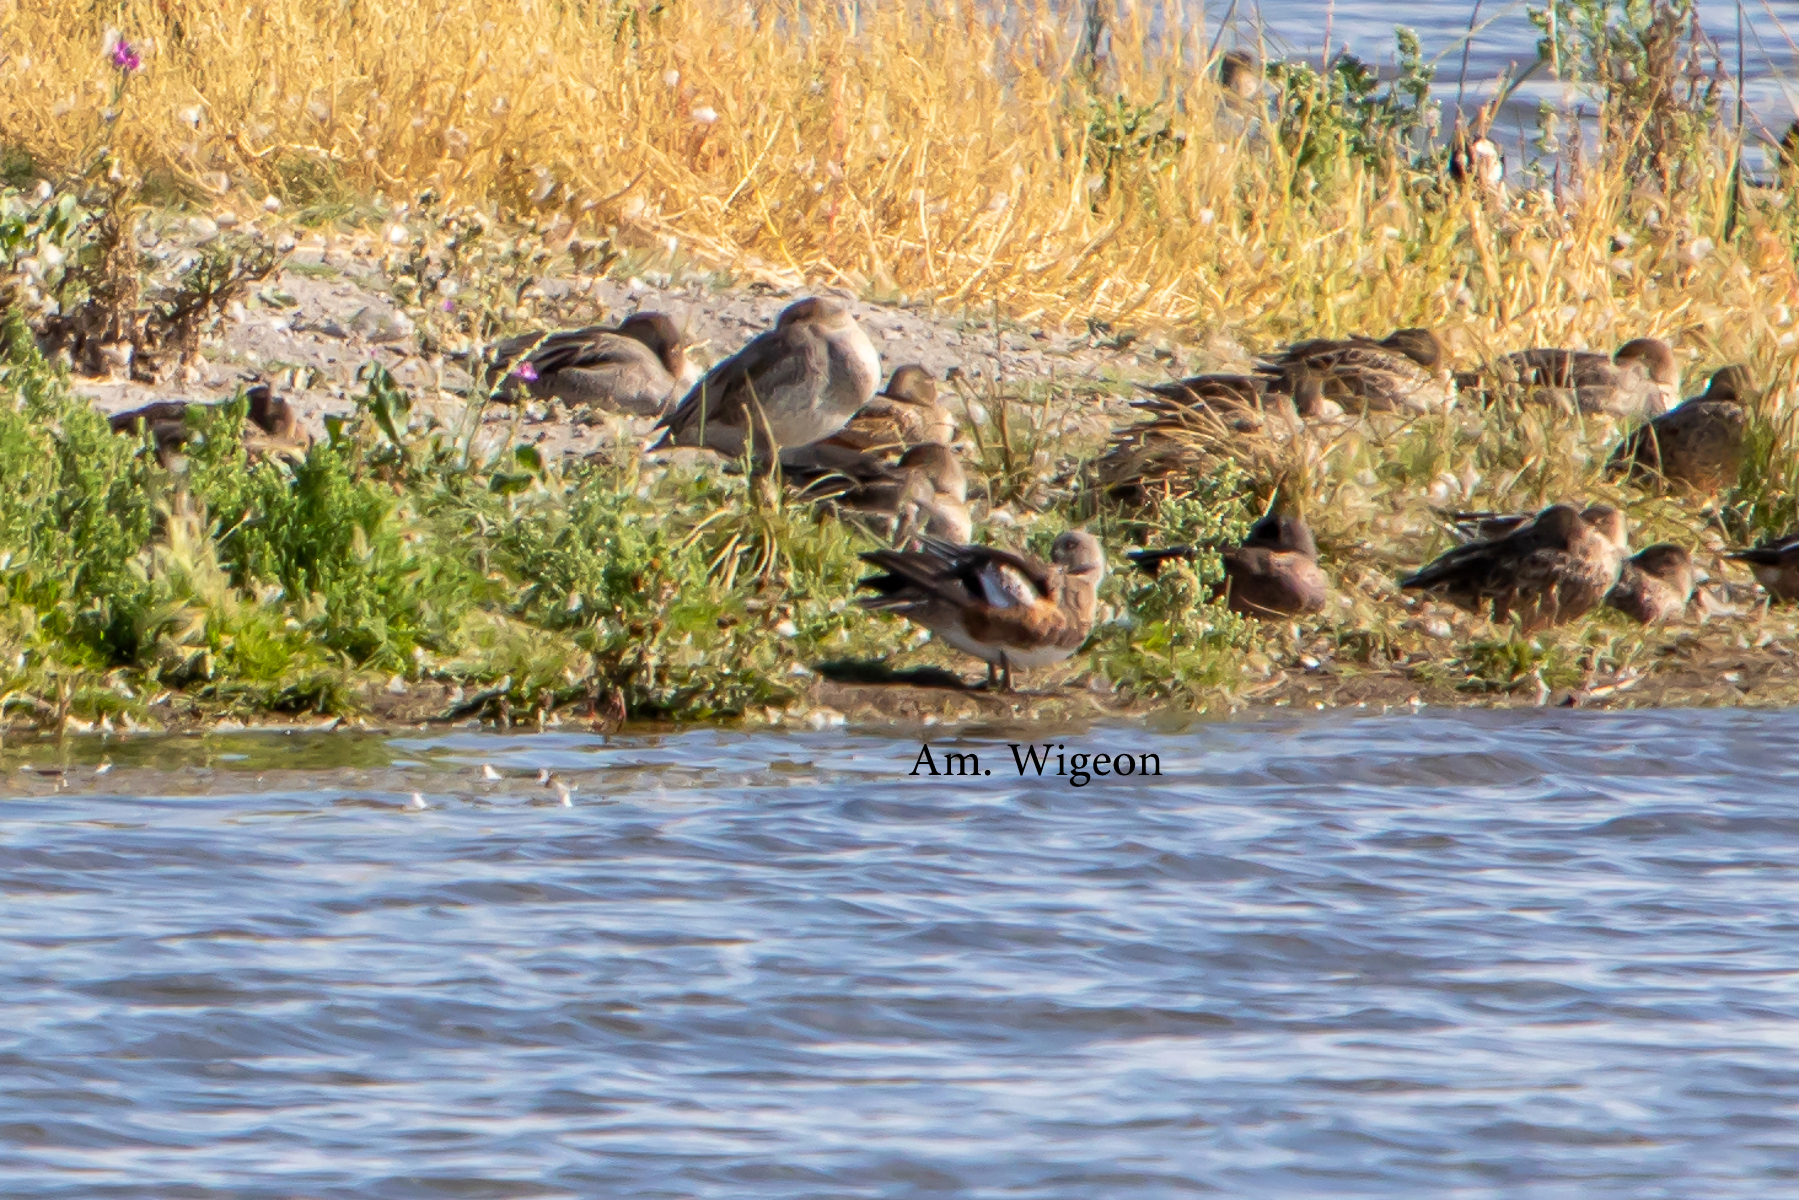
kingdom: Animalia
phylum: Chordata
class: Aves
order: Anseriformes
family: Anatidae
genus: Mareca
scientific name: Mareca americana
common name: American wigeon
